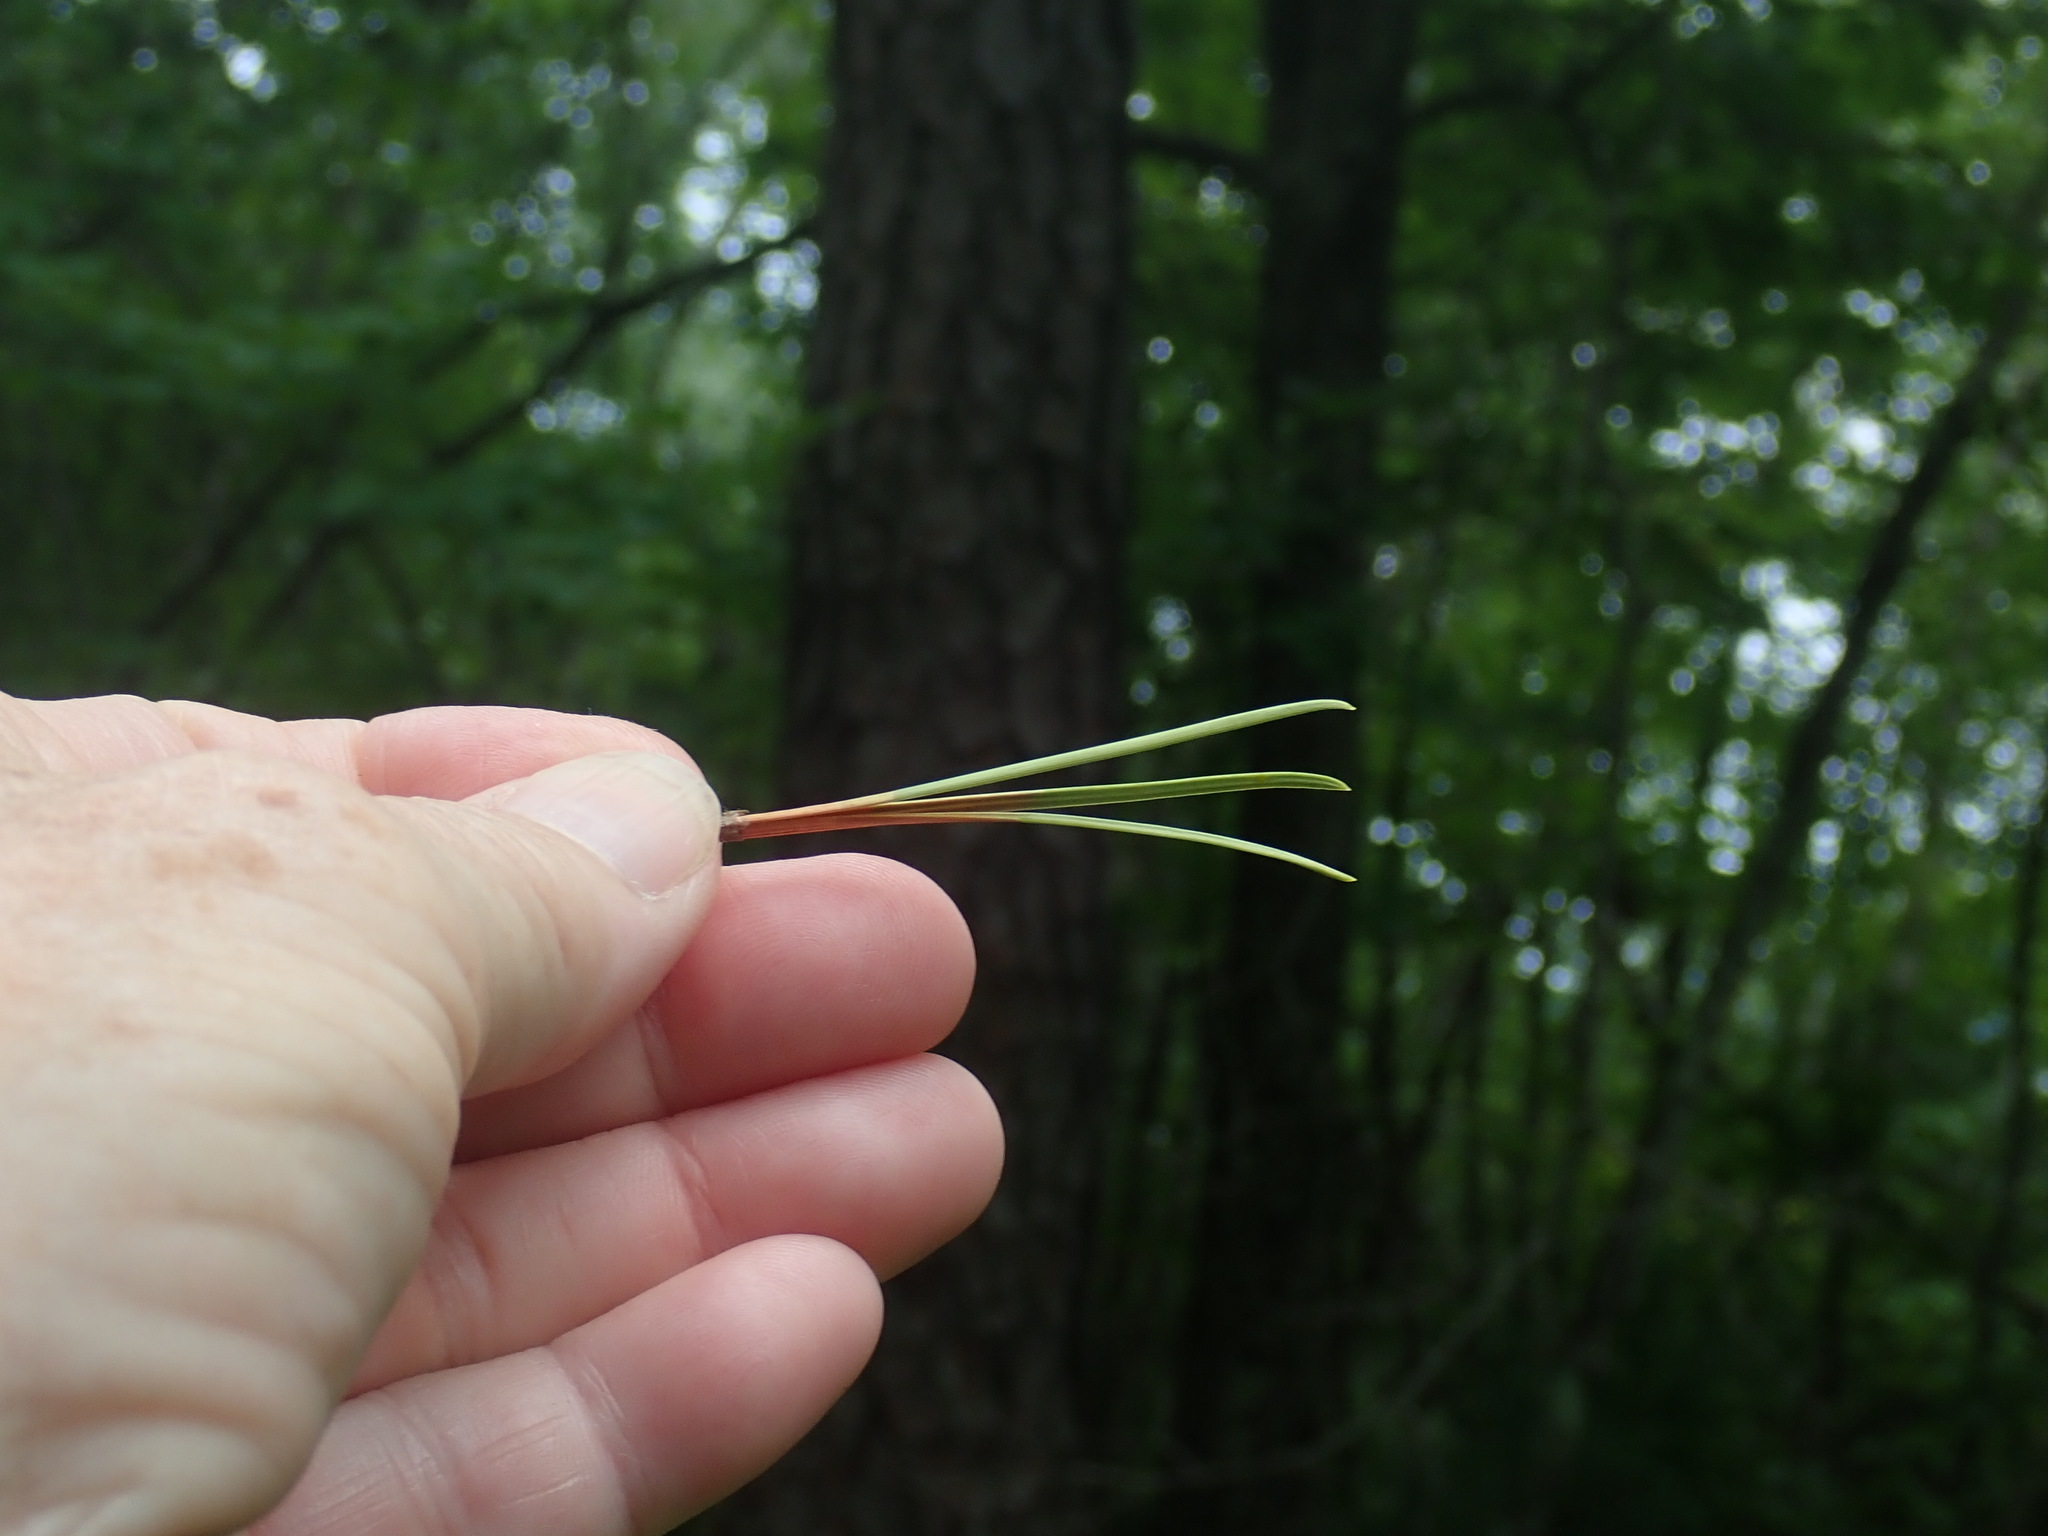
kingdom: Plantae
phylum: Tracheophyta
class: Pinopsida
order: Pinales
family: Pinaceae
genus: Pinus
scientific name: Pinus rigida
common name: Pitch pine
